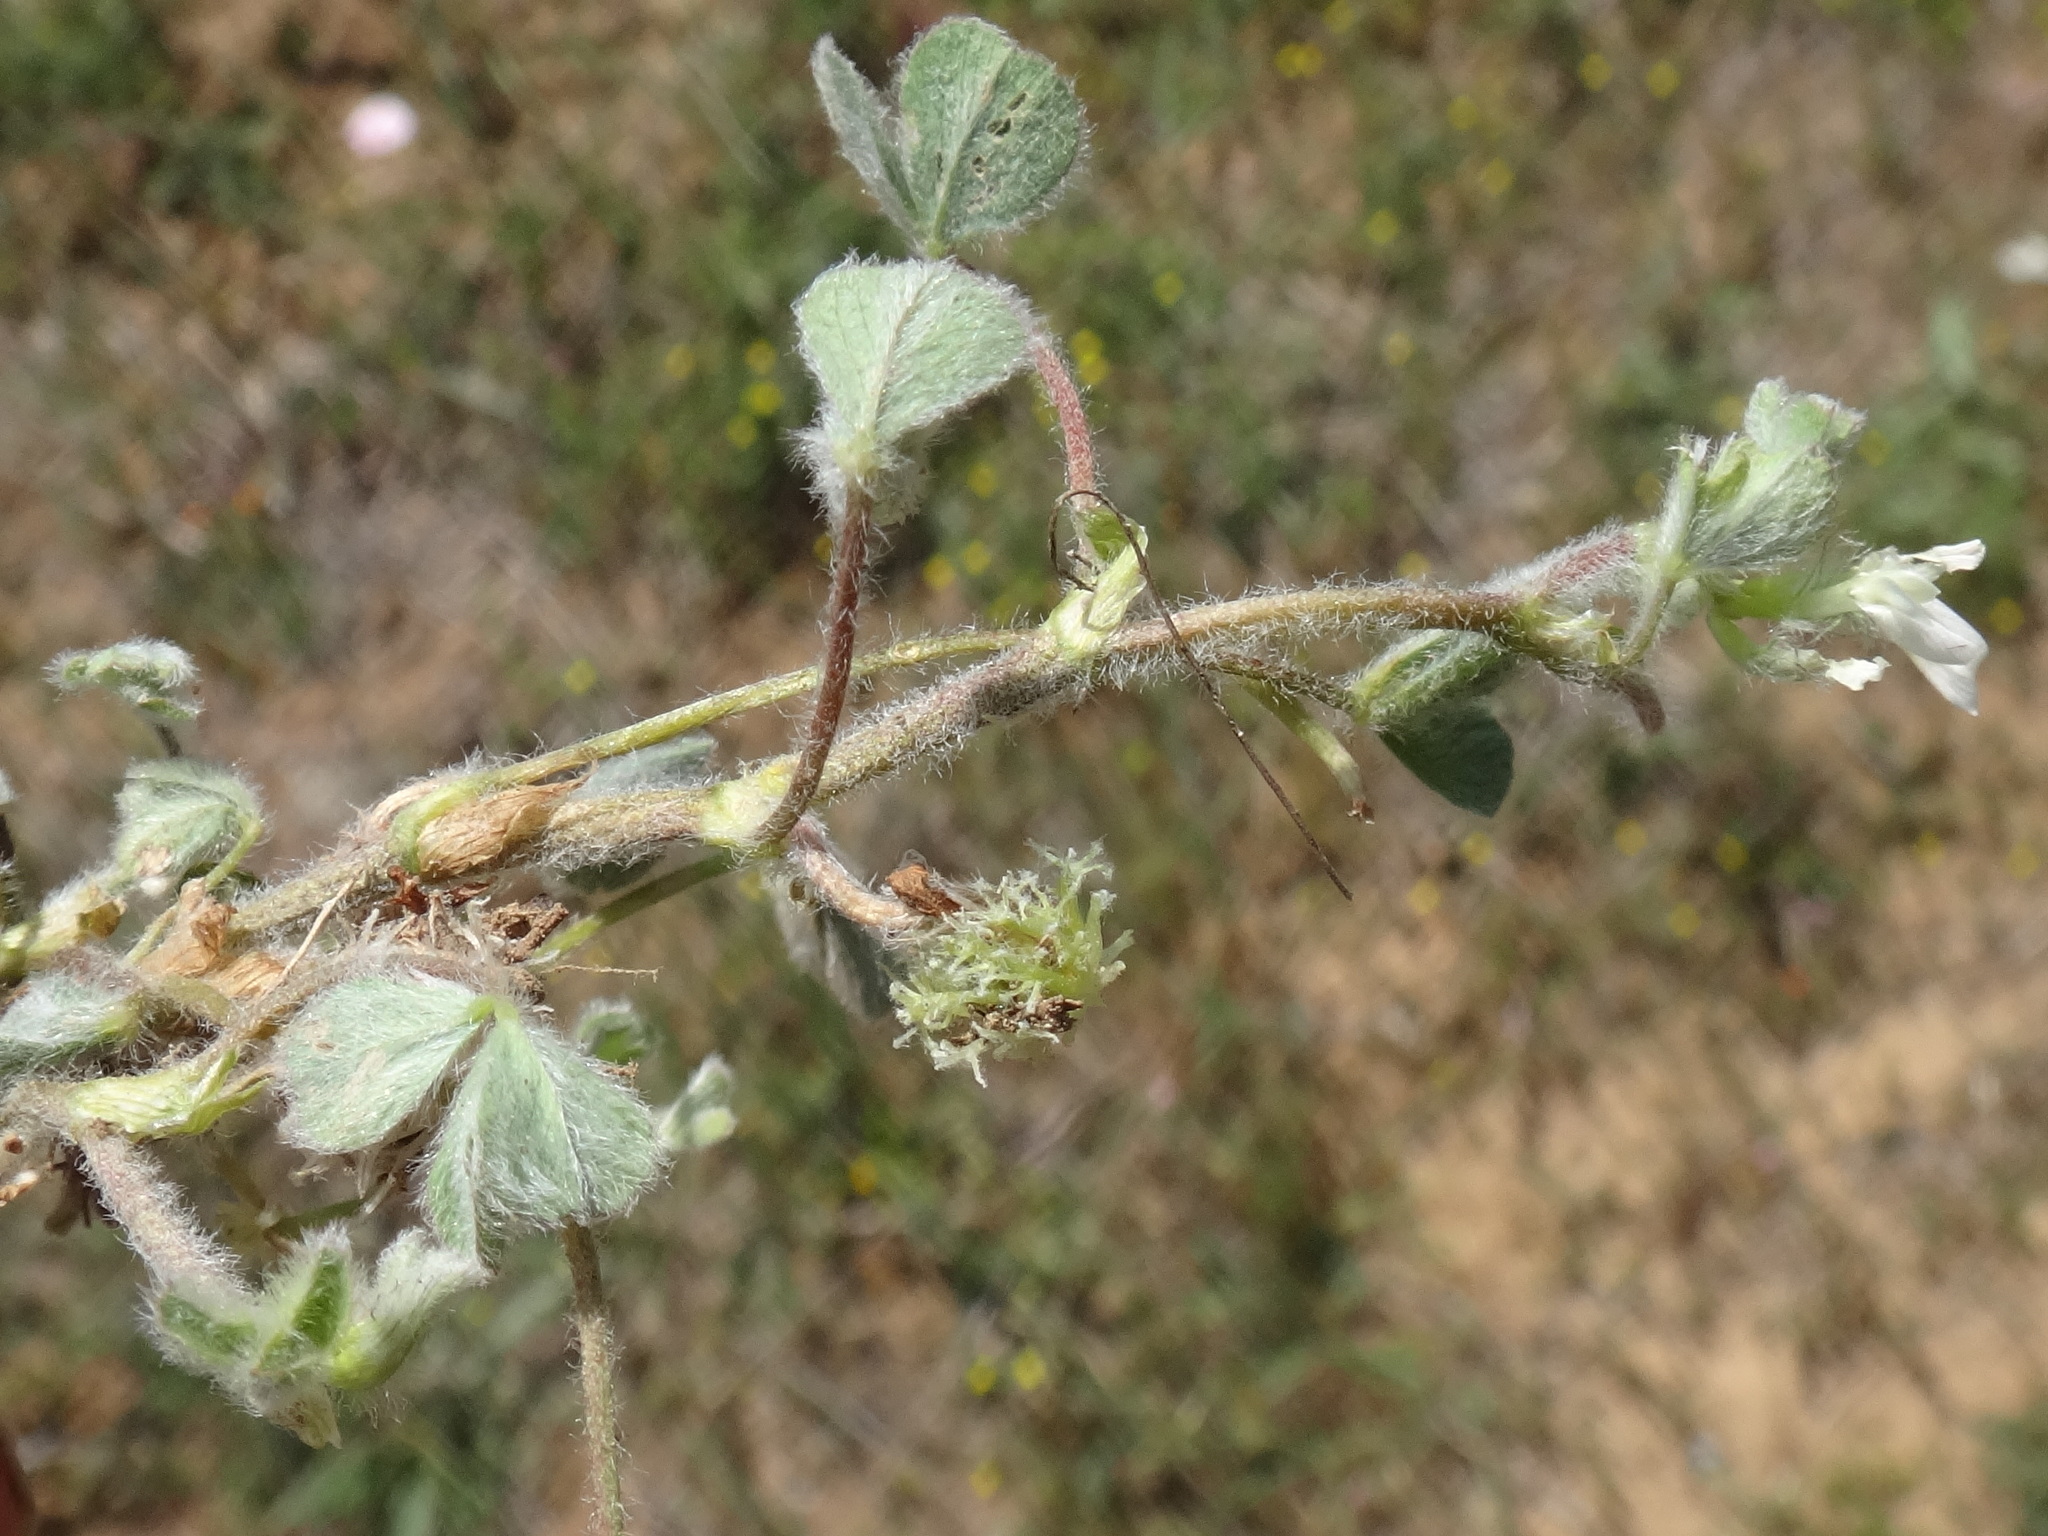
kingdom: Plantae
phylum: Tracheophyta
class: Magnoliopsida
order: Fabales
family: Fabaceae
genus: Trifolium
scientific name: Trifolium subterraneum
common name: Subterranean clover
